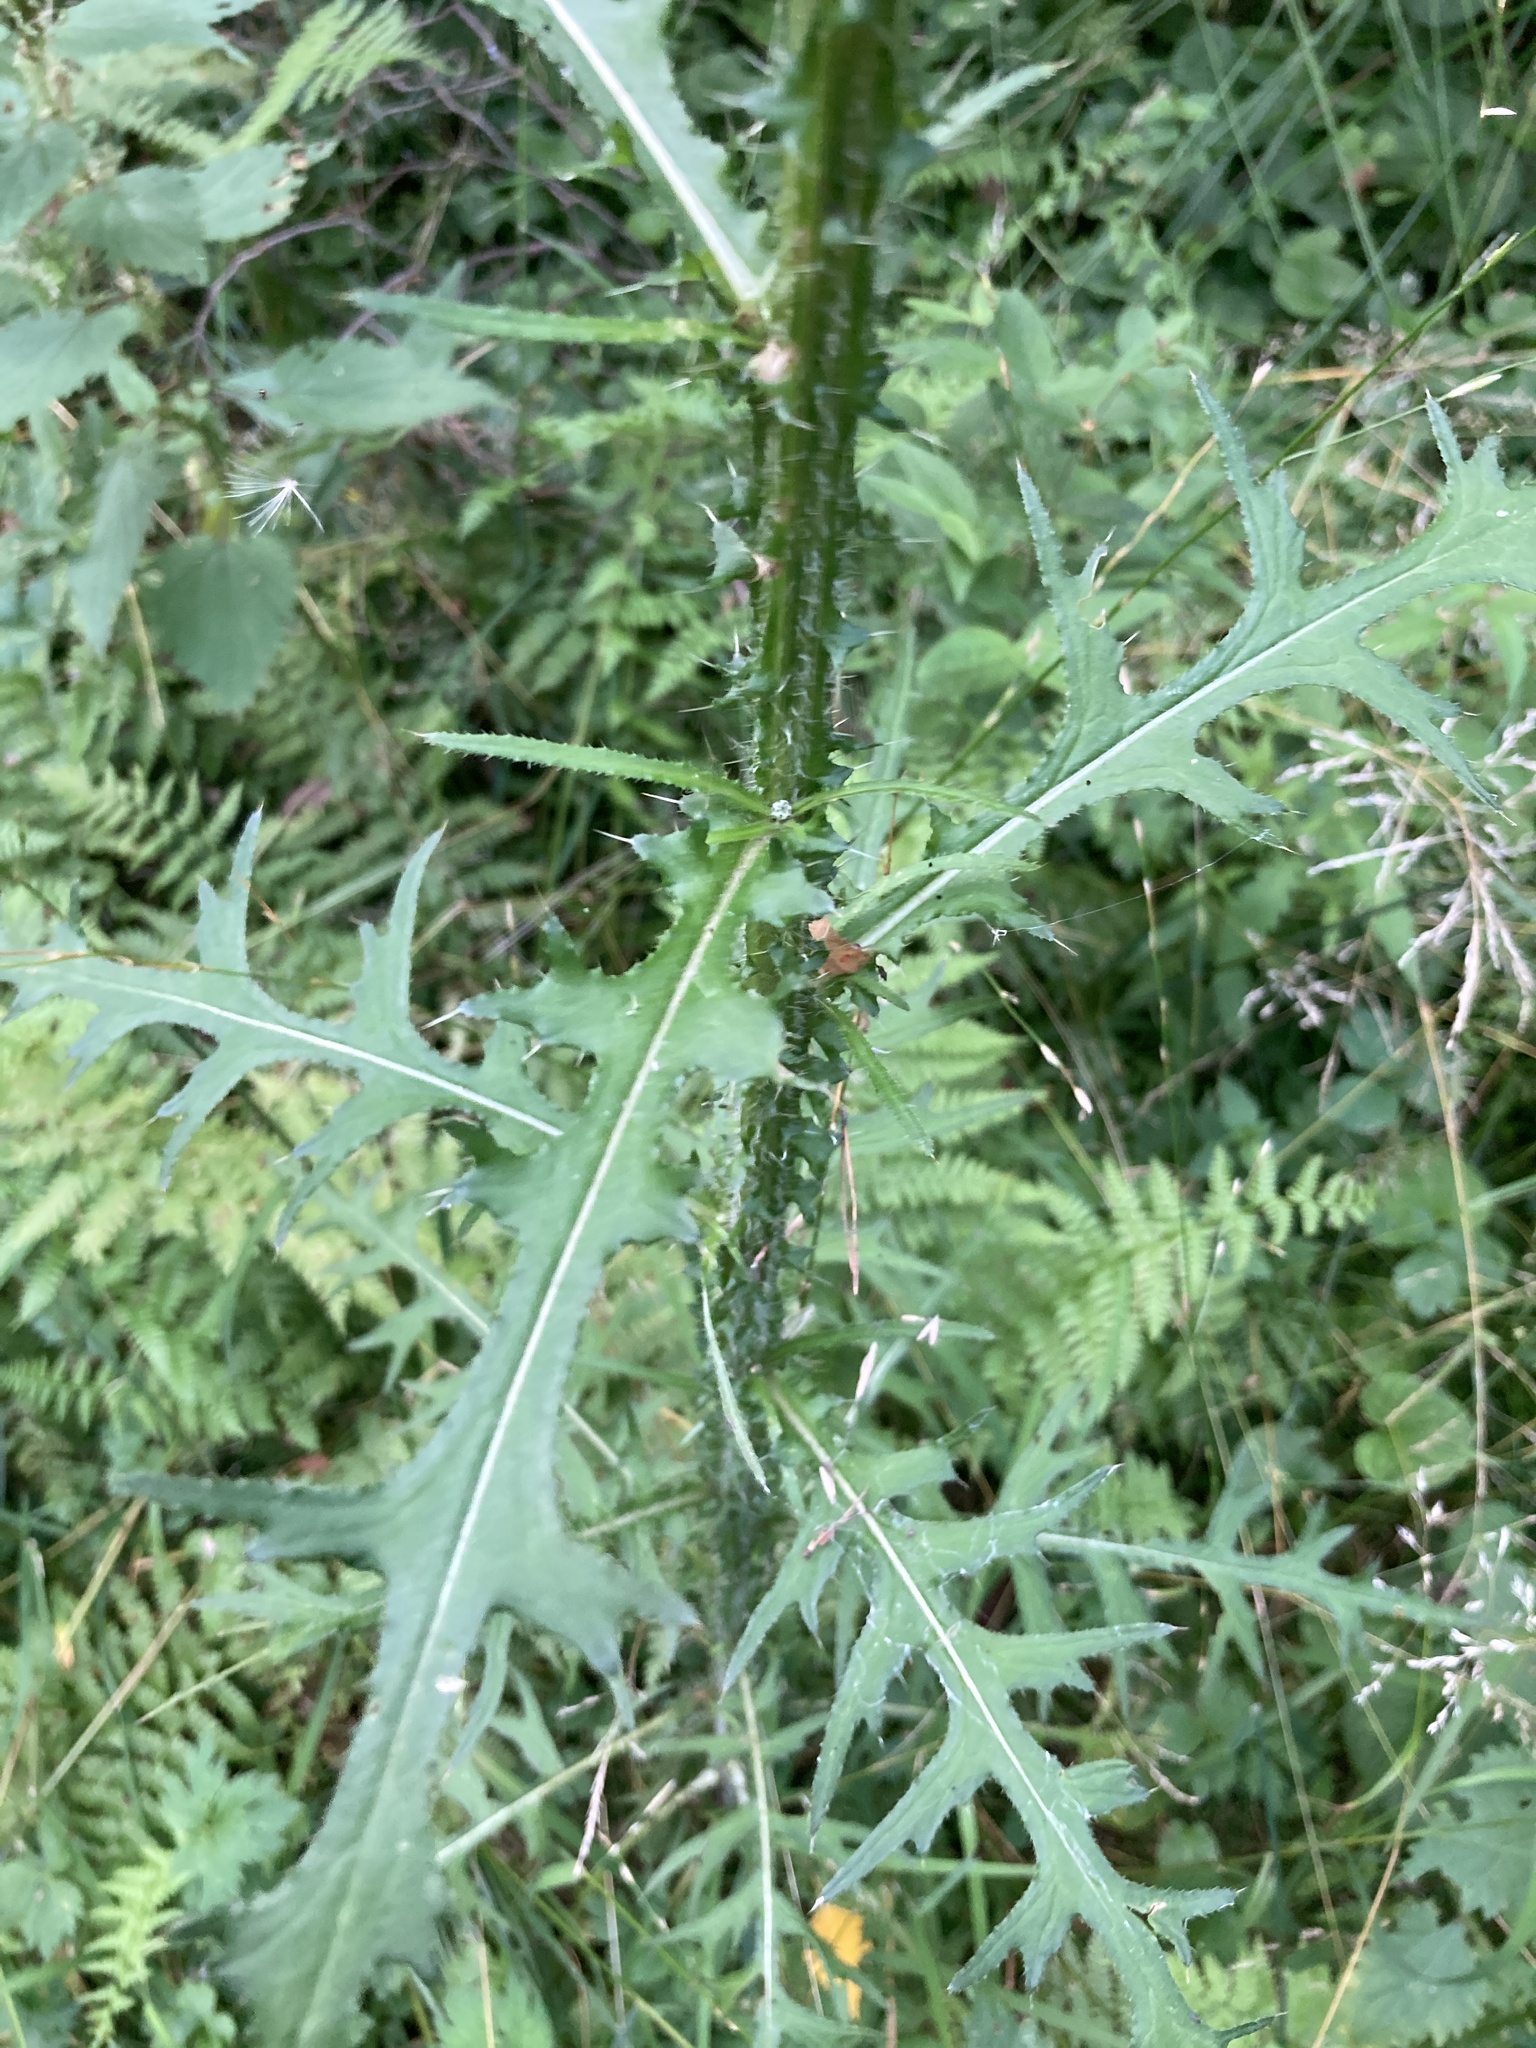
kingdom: Plantae
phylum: Tracheophyta
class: Magnoliopsida
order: Asterales
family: Asteraceae
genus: Cirsium
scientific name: Cirsium palustre
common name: Marsh thistle
